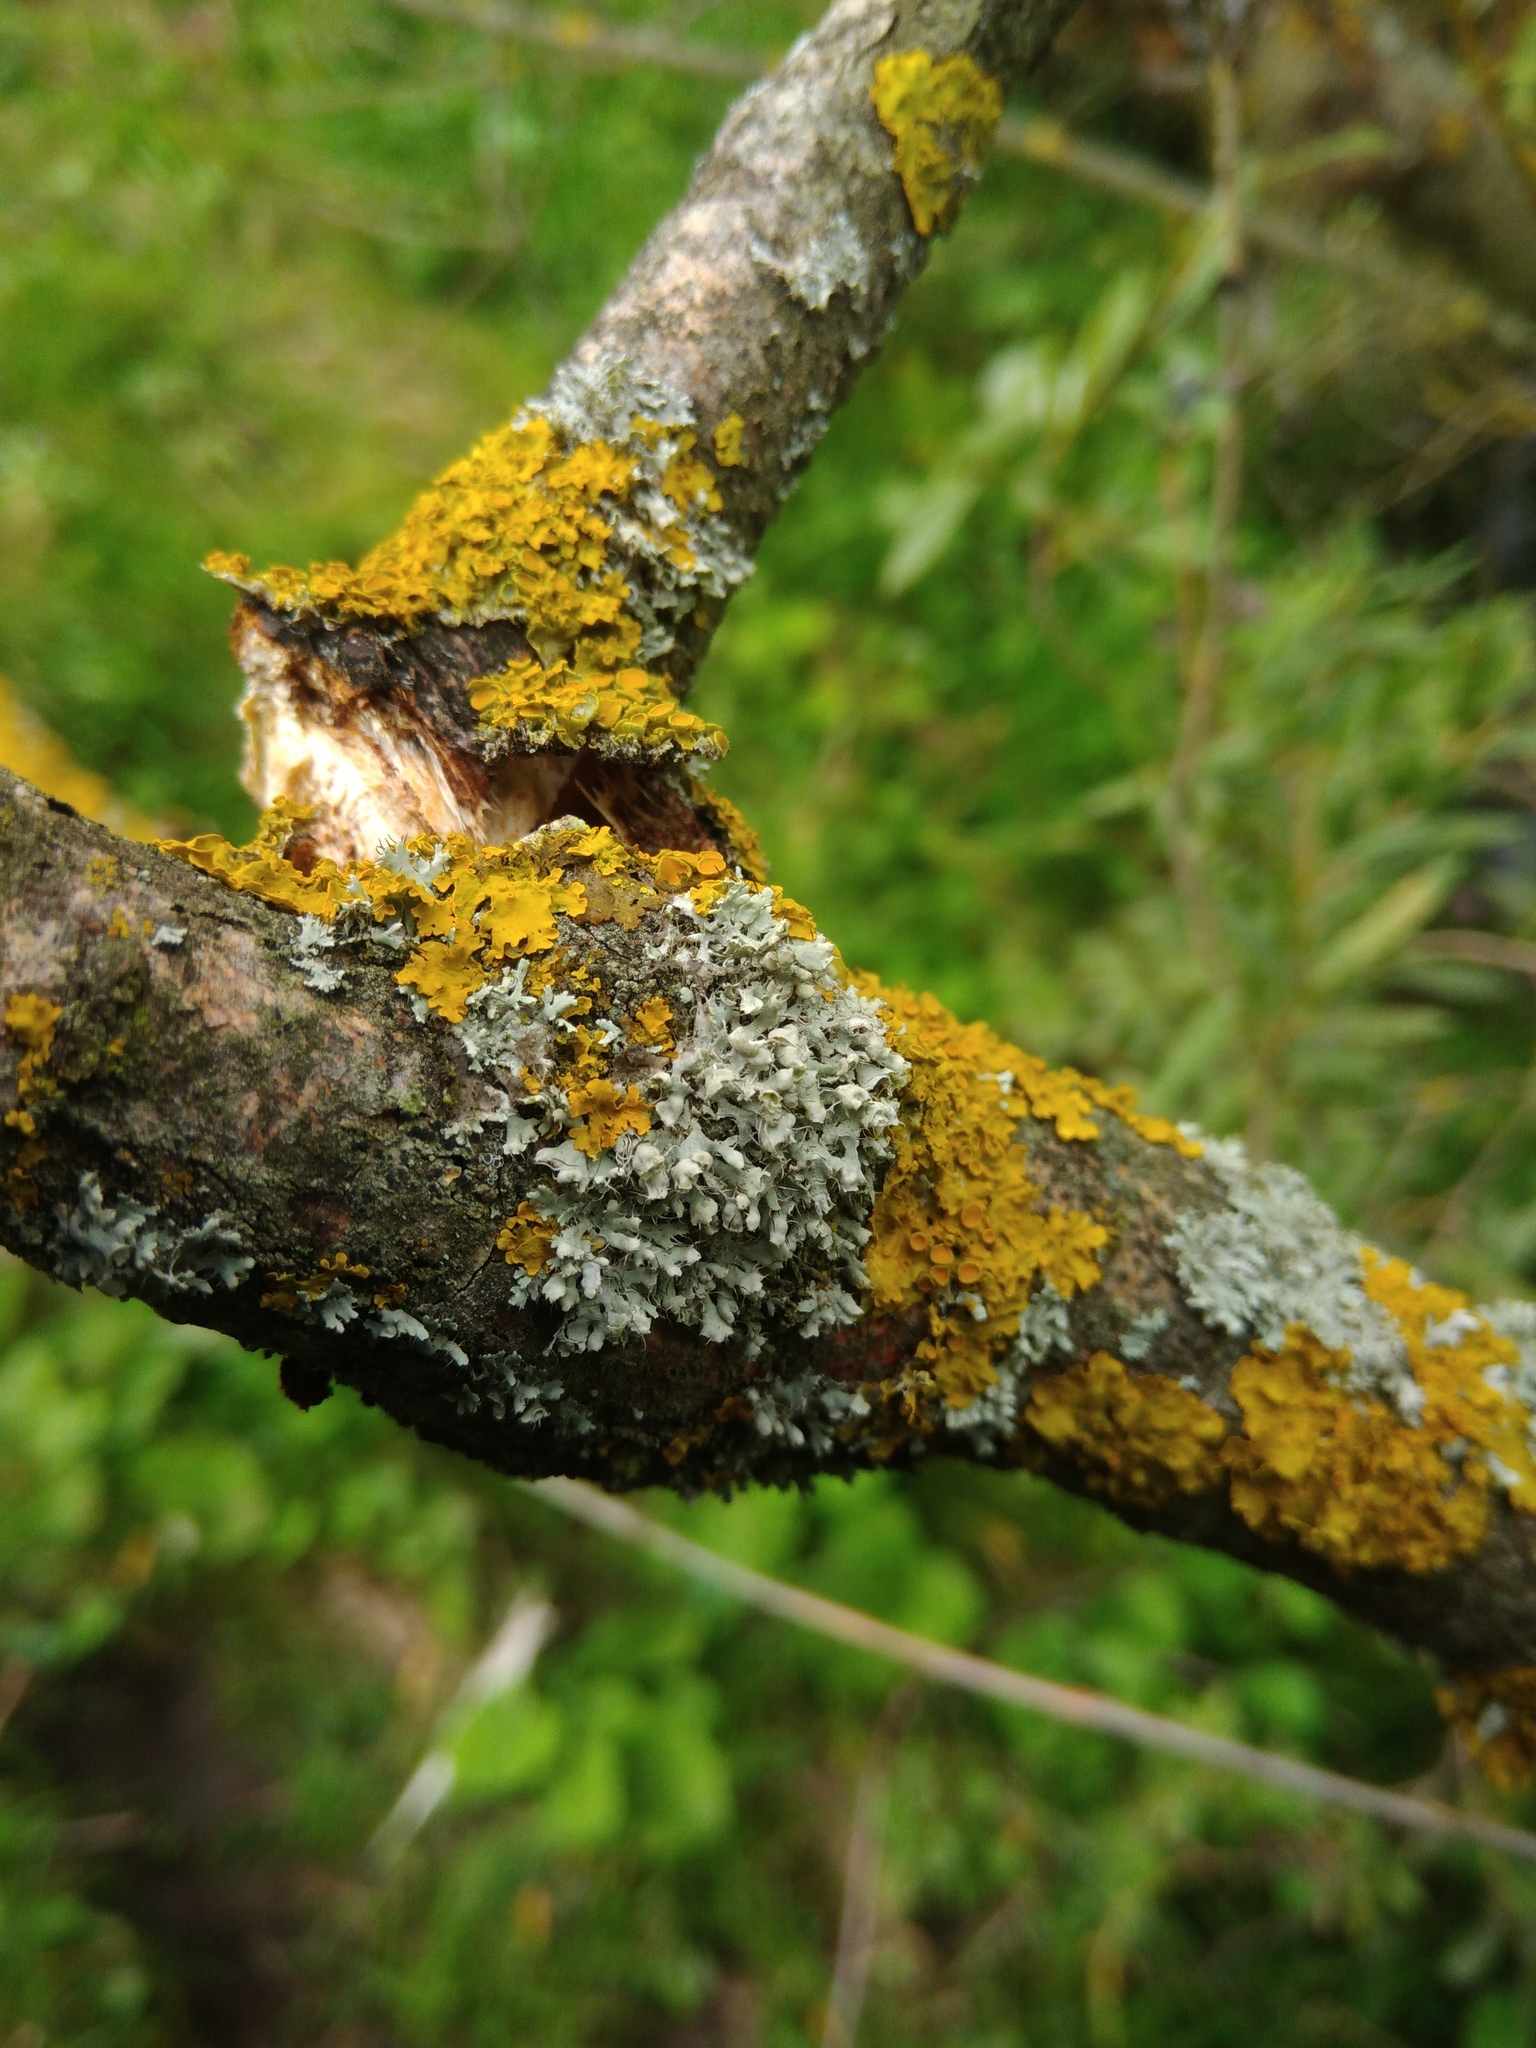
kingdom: Fungi
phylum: Ascomycota
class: Lecanoromycetes
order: Caliciales
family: Physciaceae
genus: Physcia
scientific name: Physcia adscendens
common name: Hooded rosette lichen
